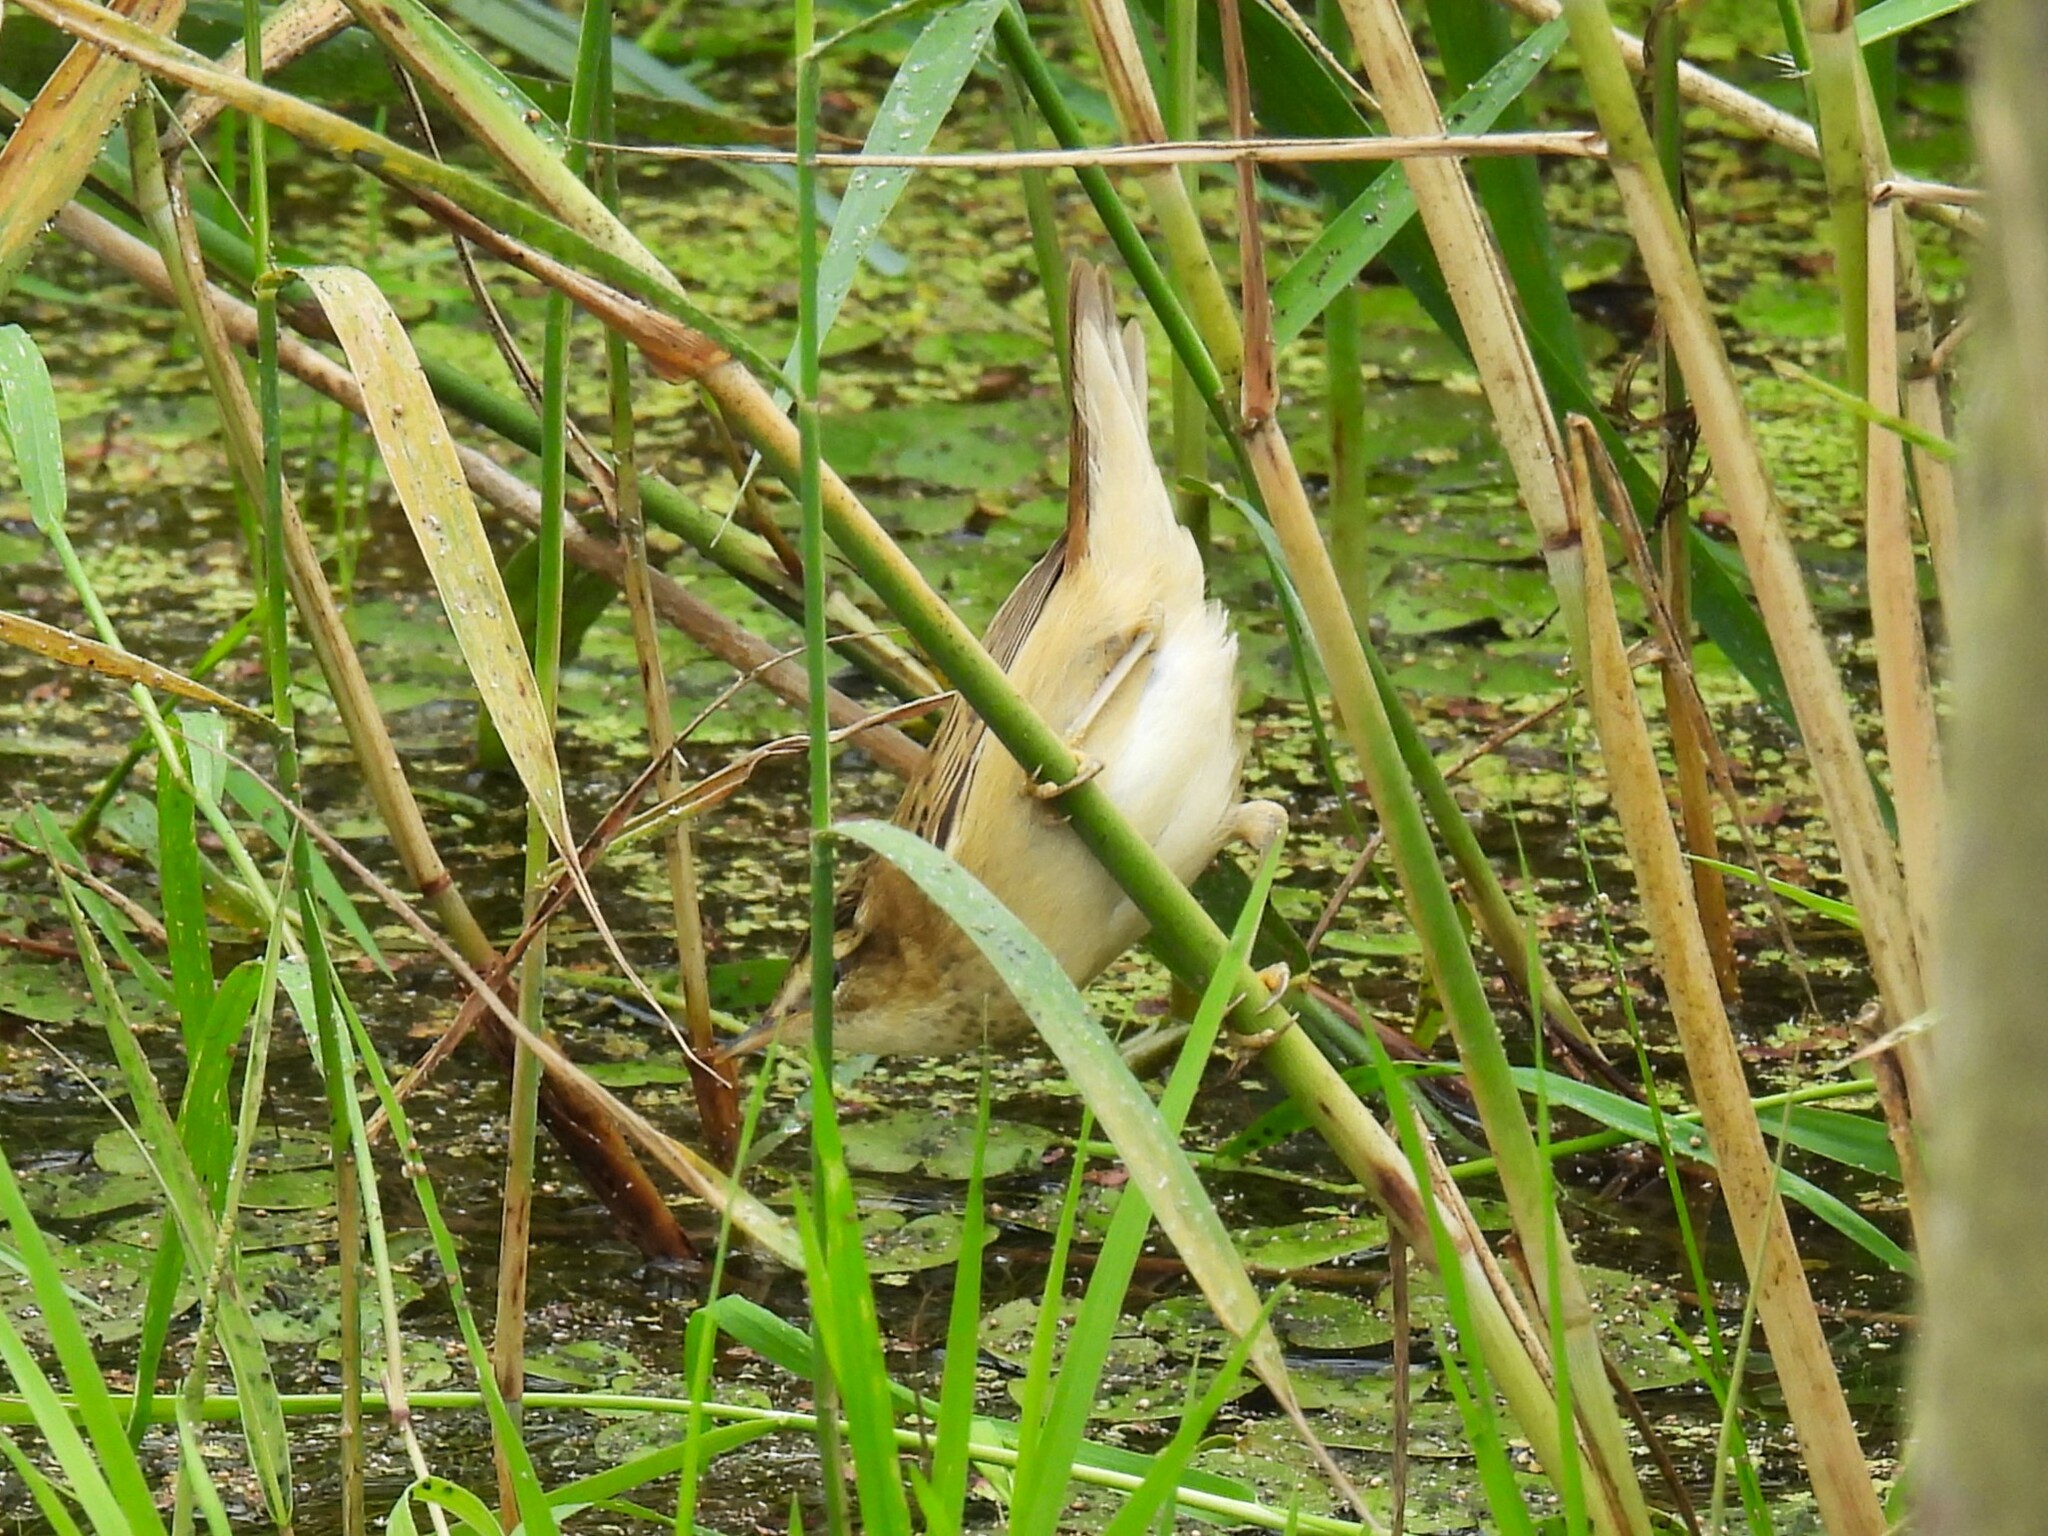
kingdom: Animalia
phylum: Chordata
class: Aves
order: Passeriformes
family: Acrocephalidae
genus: Acrocephalus
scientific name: Acrocephalus schoenobaenus
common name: Sedge warbler
